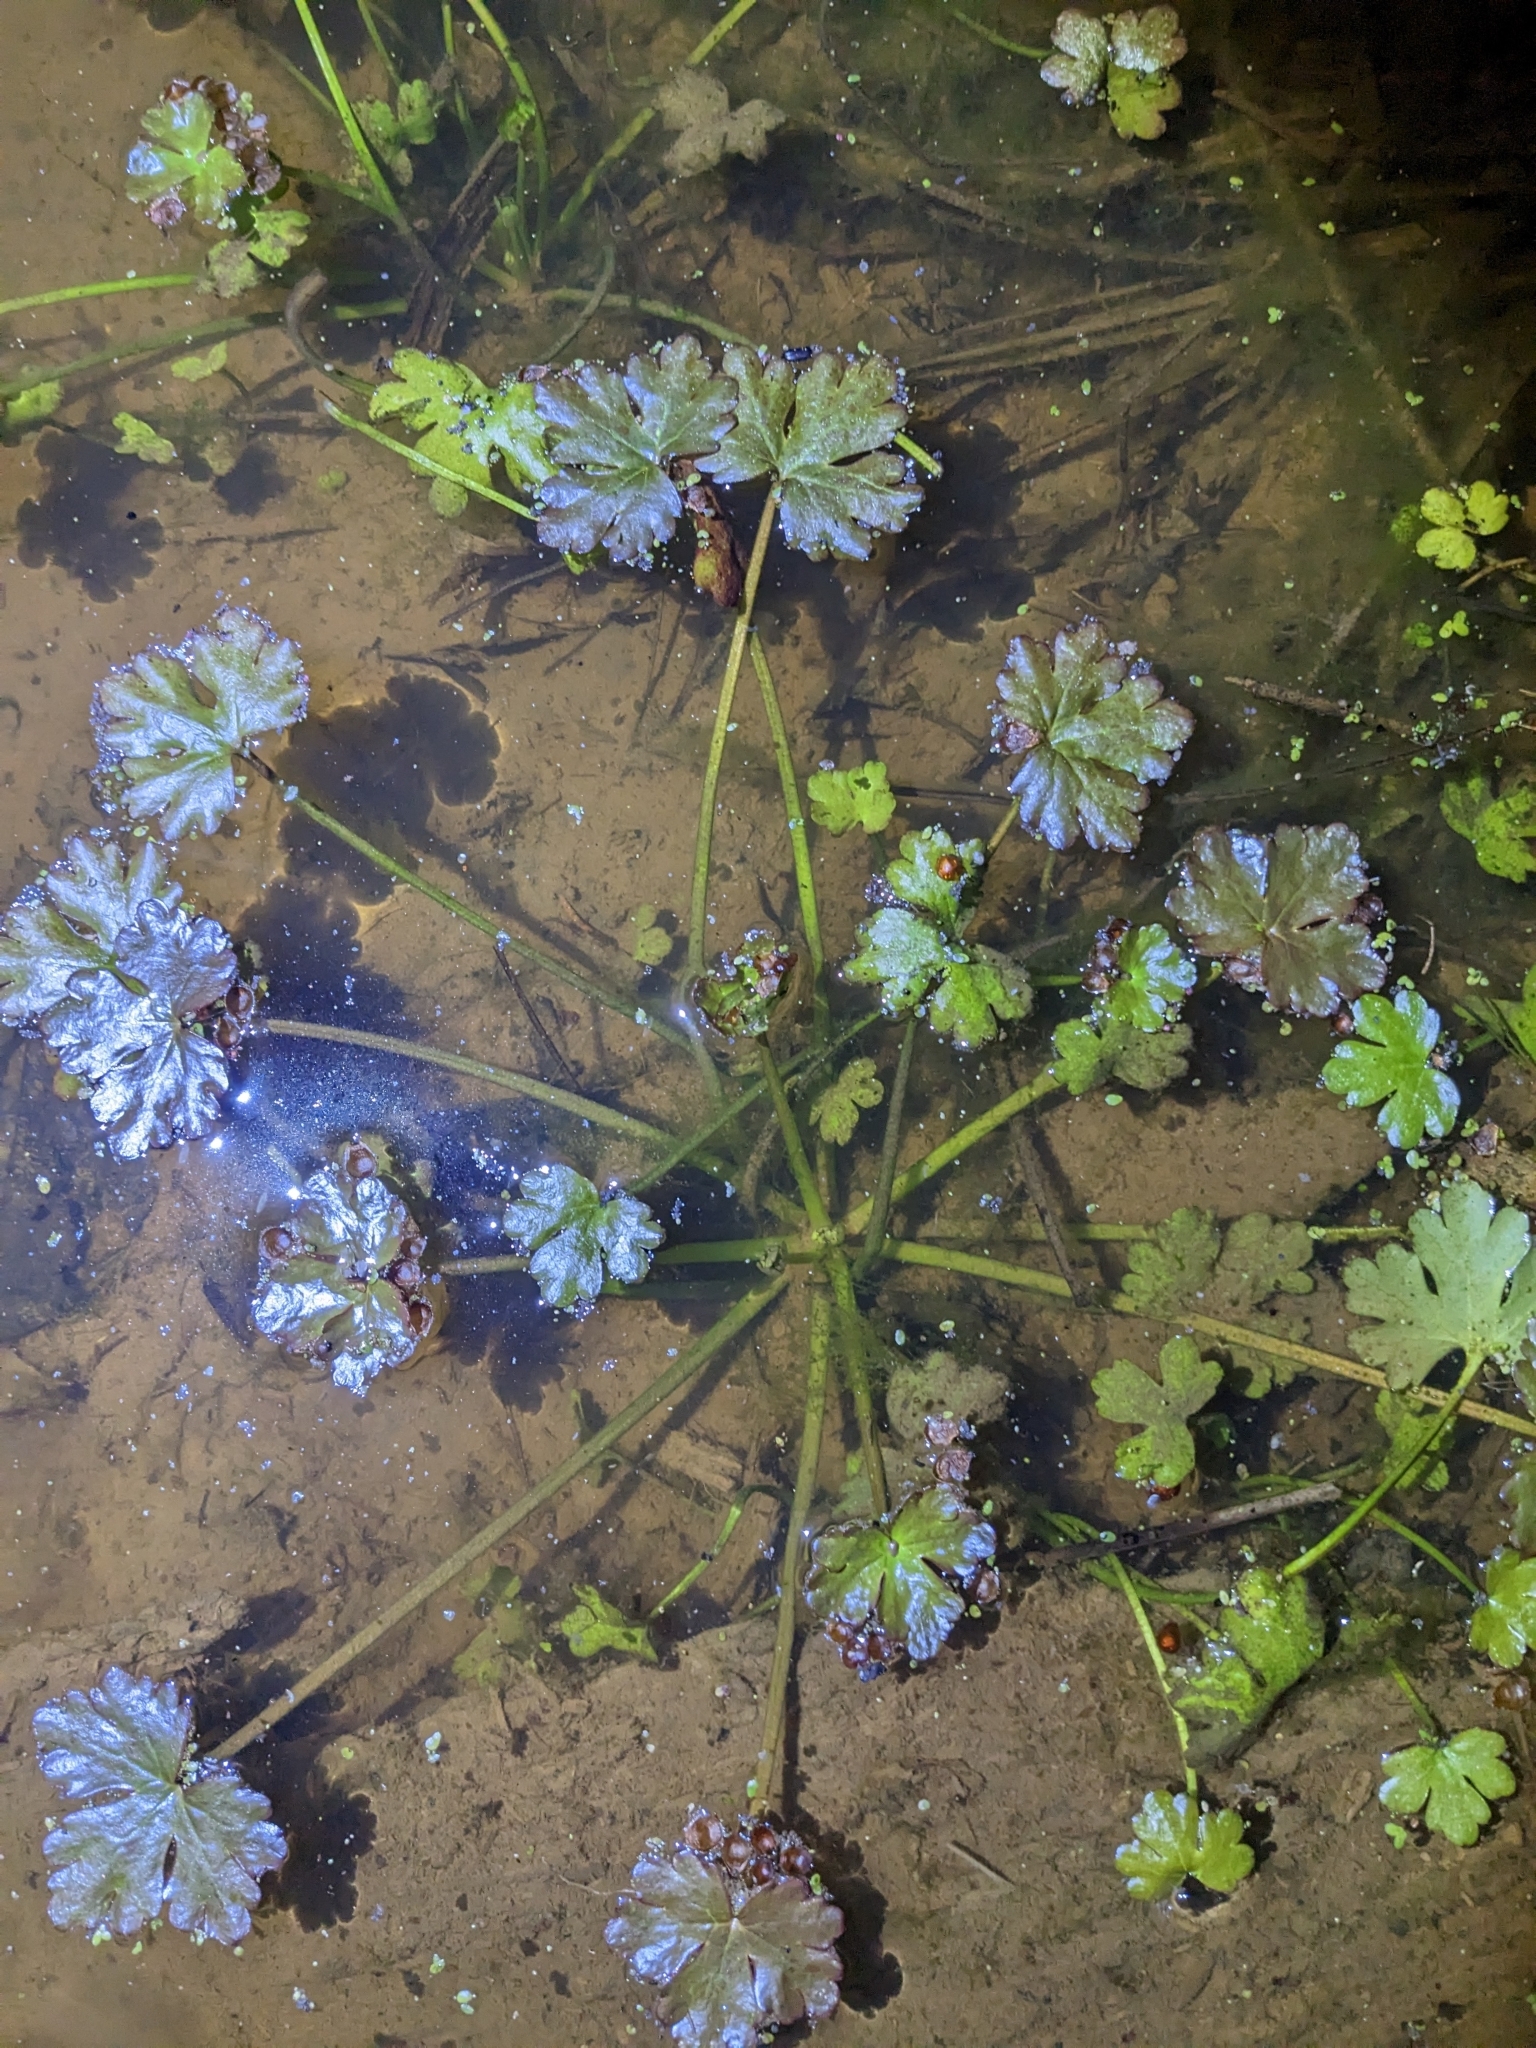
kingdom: Plantae
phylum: Tracheophyta
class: Magnoliopsida
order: Ranunculales
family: Ranunculaceae
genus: Ranunculus
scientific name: Ranunculus sceleratus
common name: Celery-leaved buttercup
